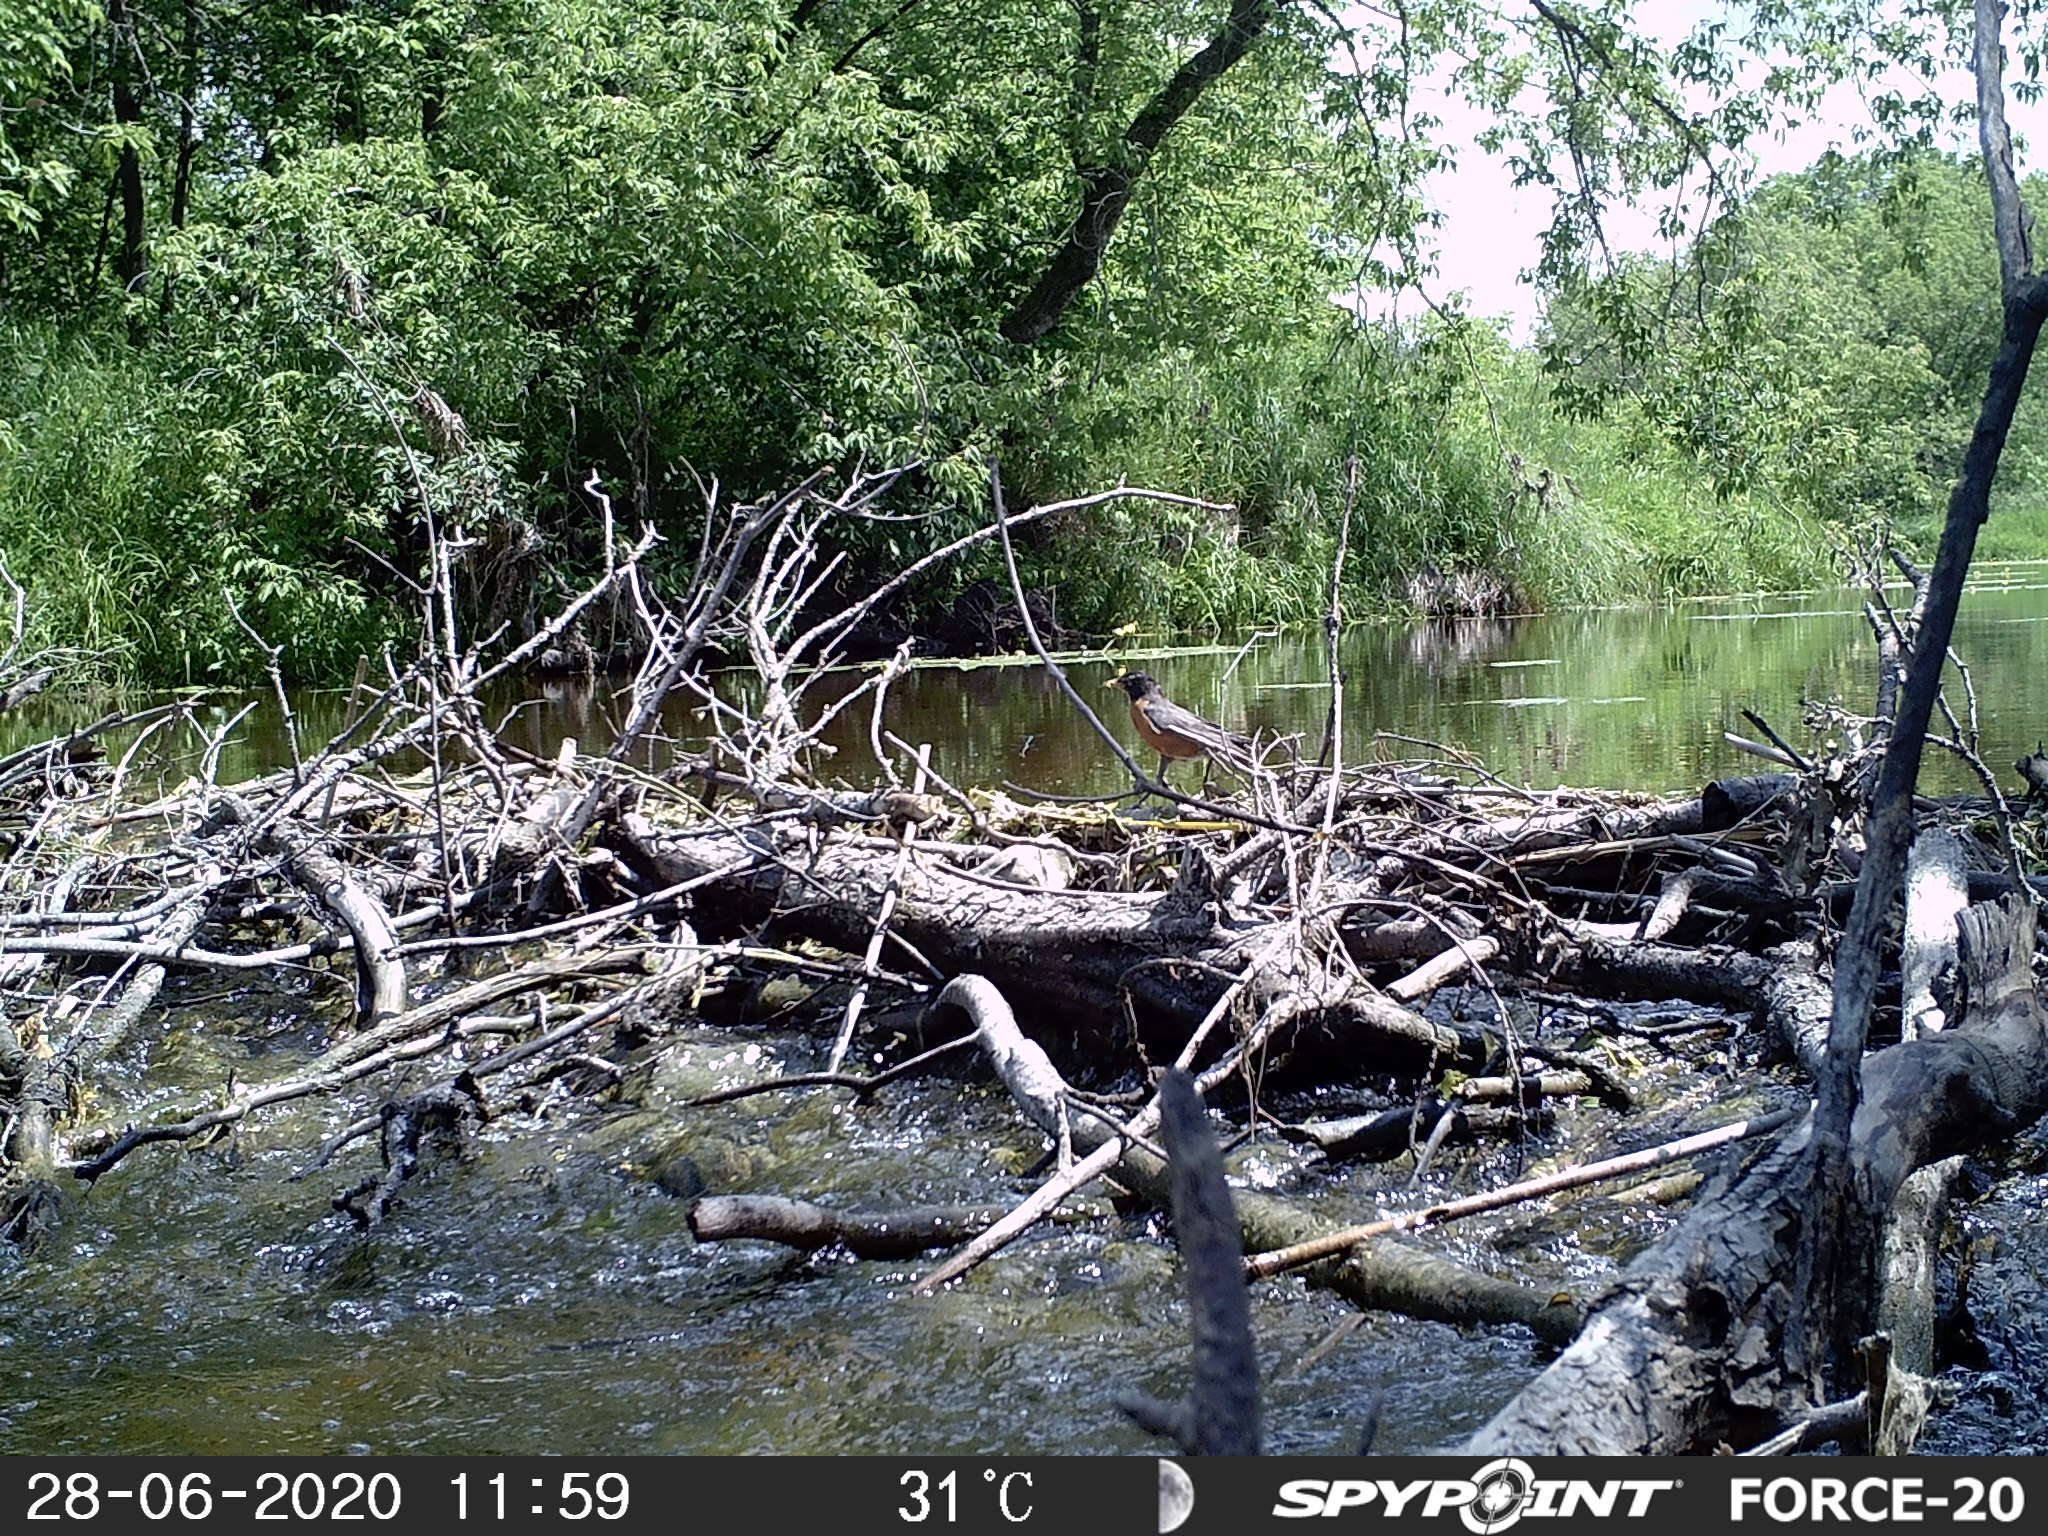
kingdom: Animalia
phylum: Chordata
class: Aves
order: Passeriformes
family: Turdidae
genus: Turdus
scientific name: Turdus migratorius
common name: American robin
